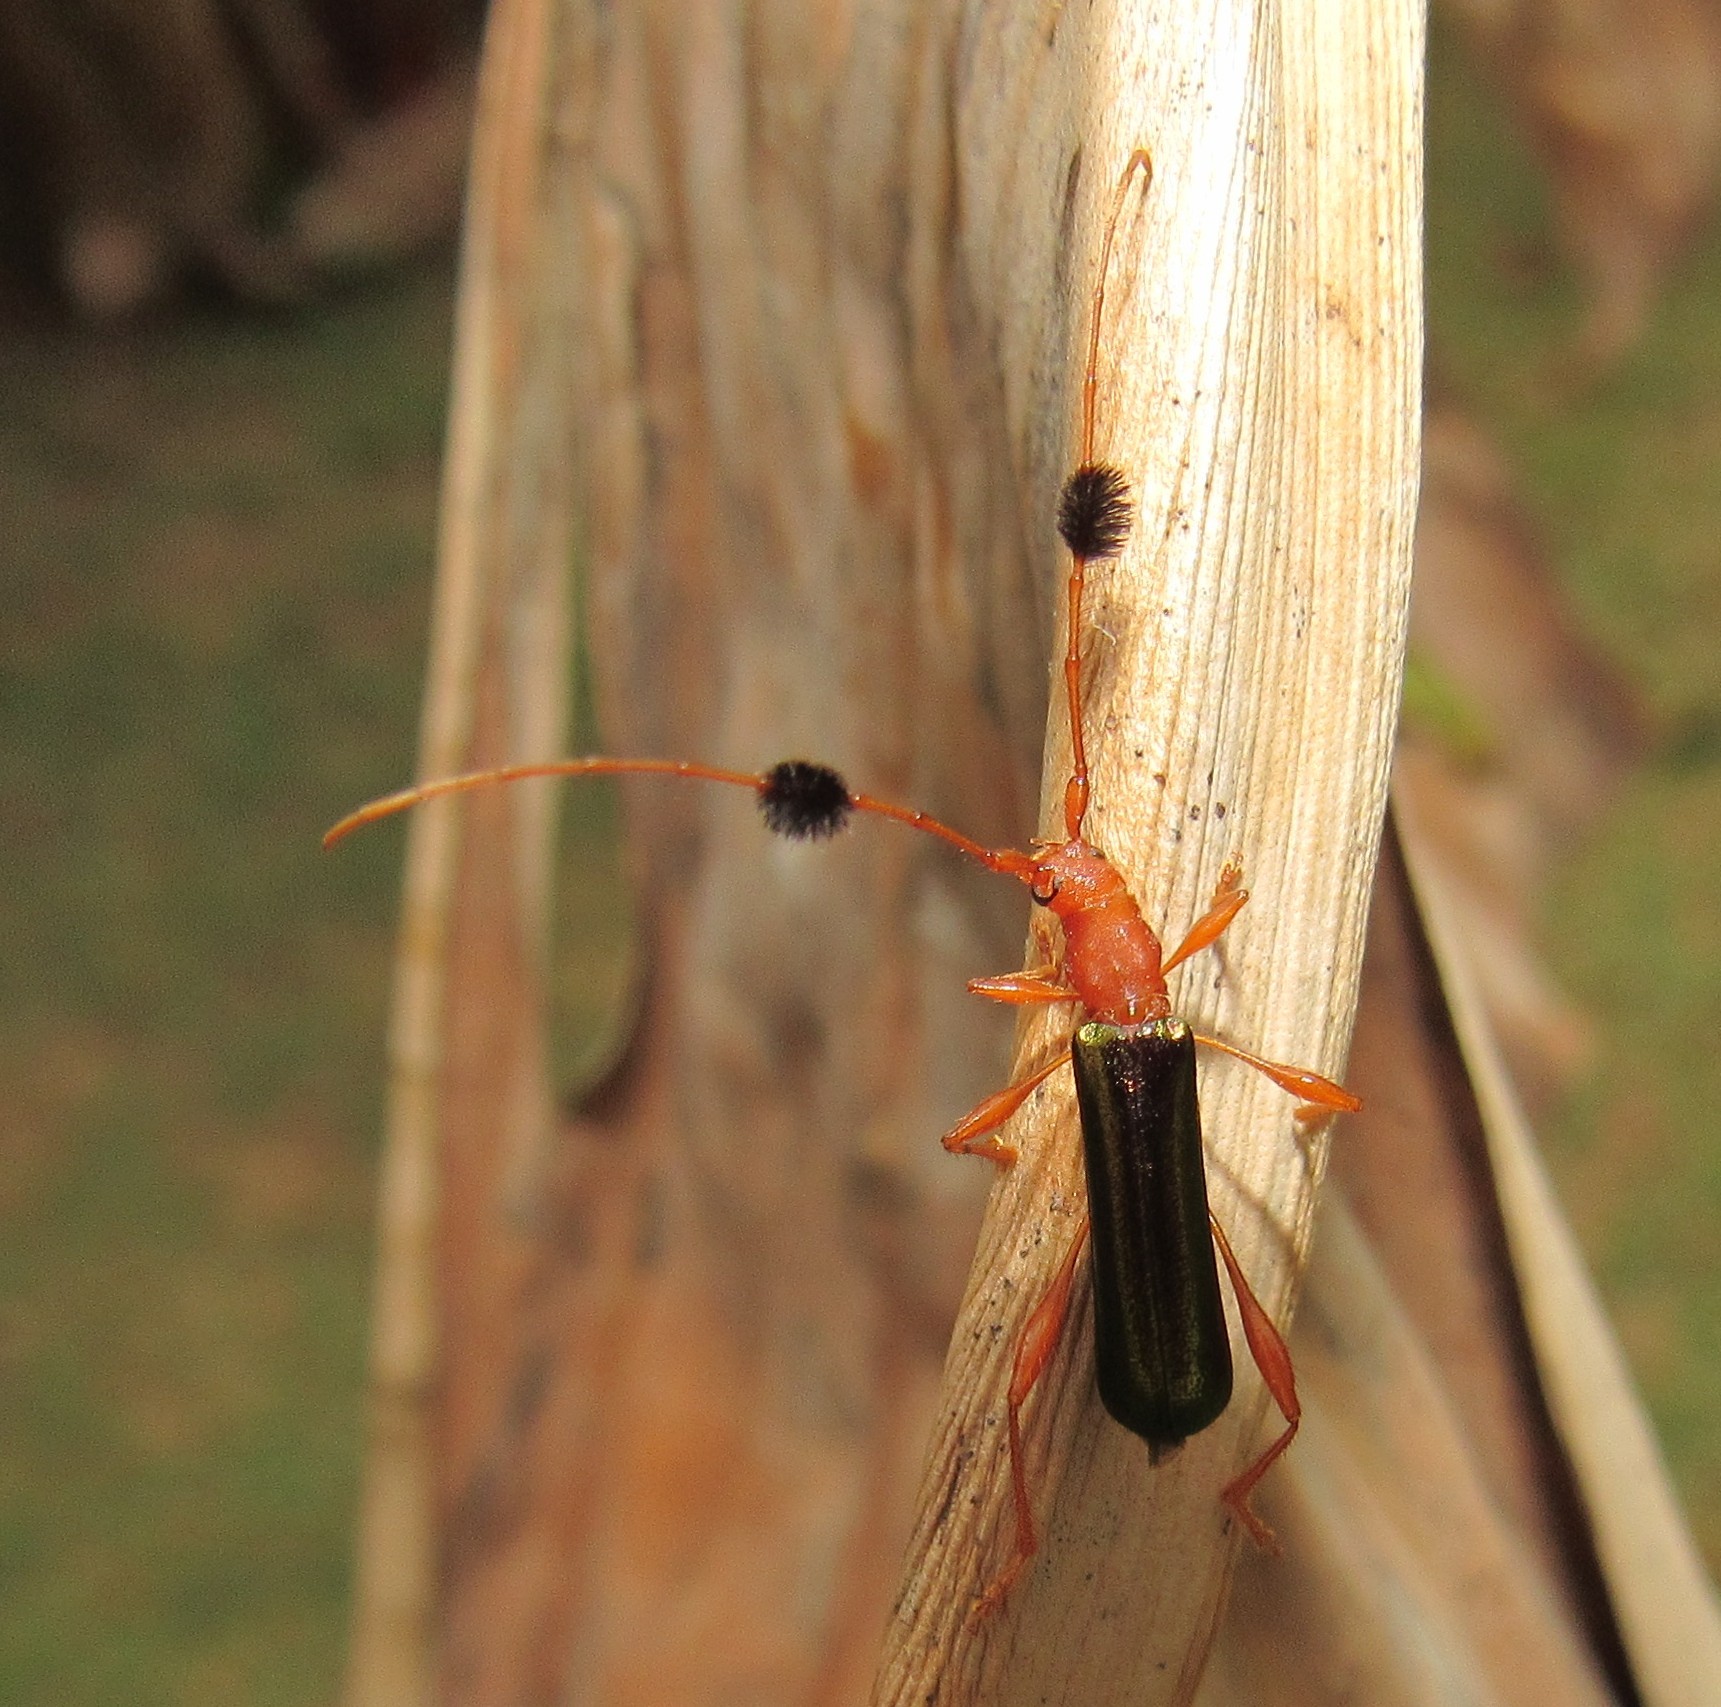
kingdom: Animalia
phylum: Arthropoda
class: Insecta
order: Coleoptera
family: Cerambycidae
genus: Unxia
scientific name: Unxia gracilior
